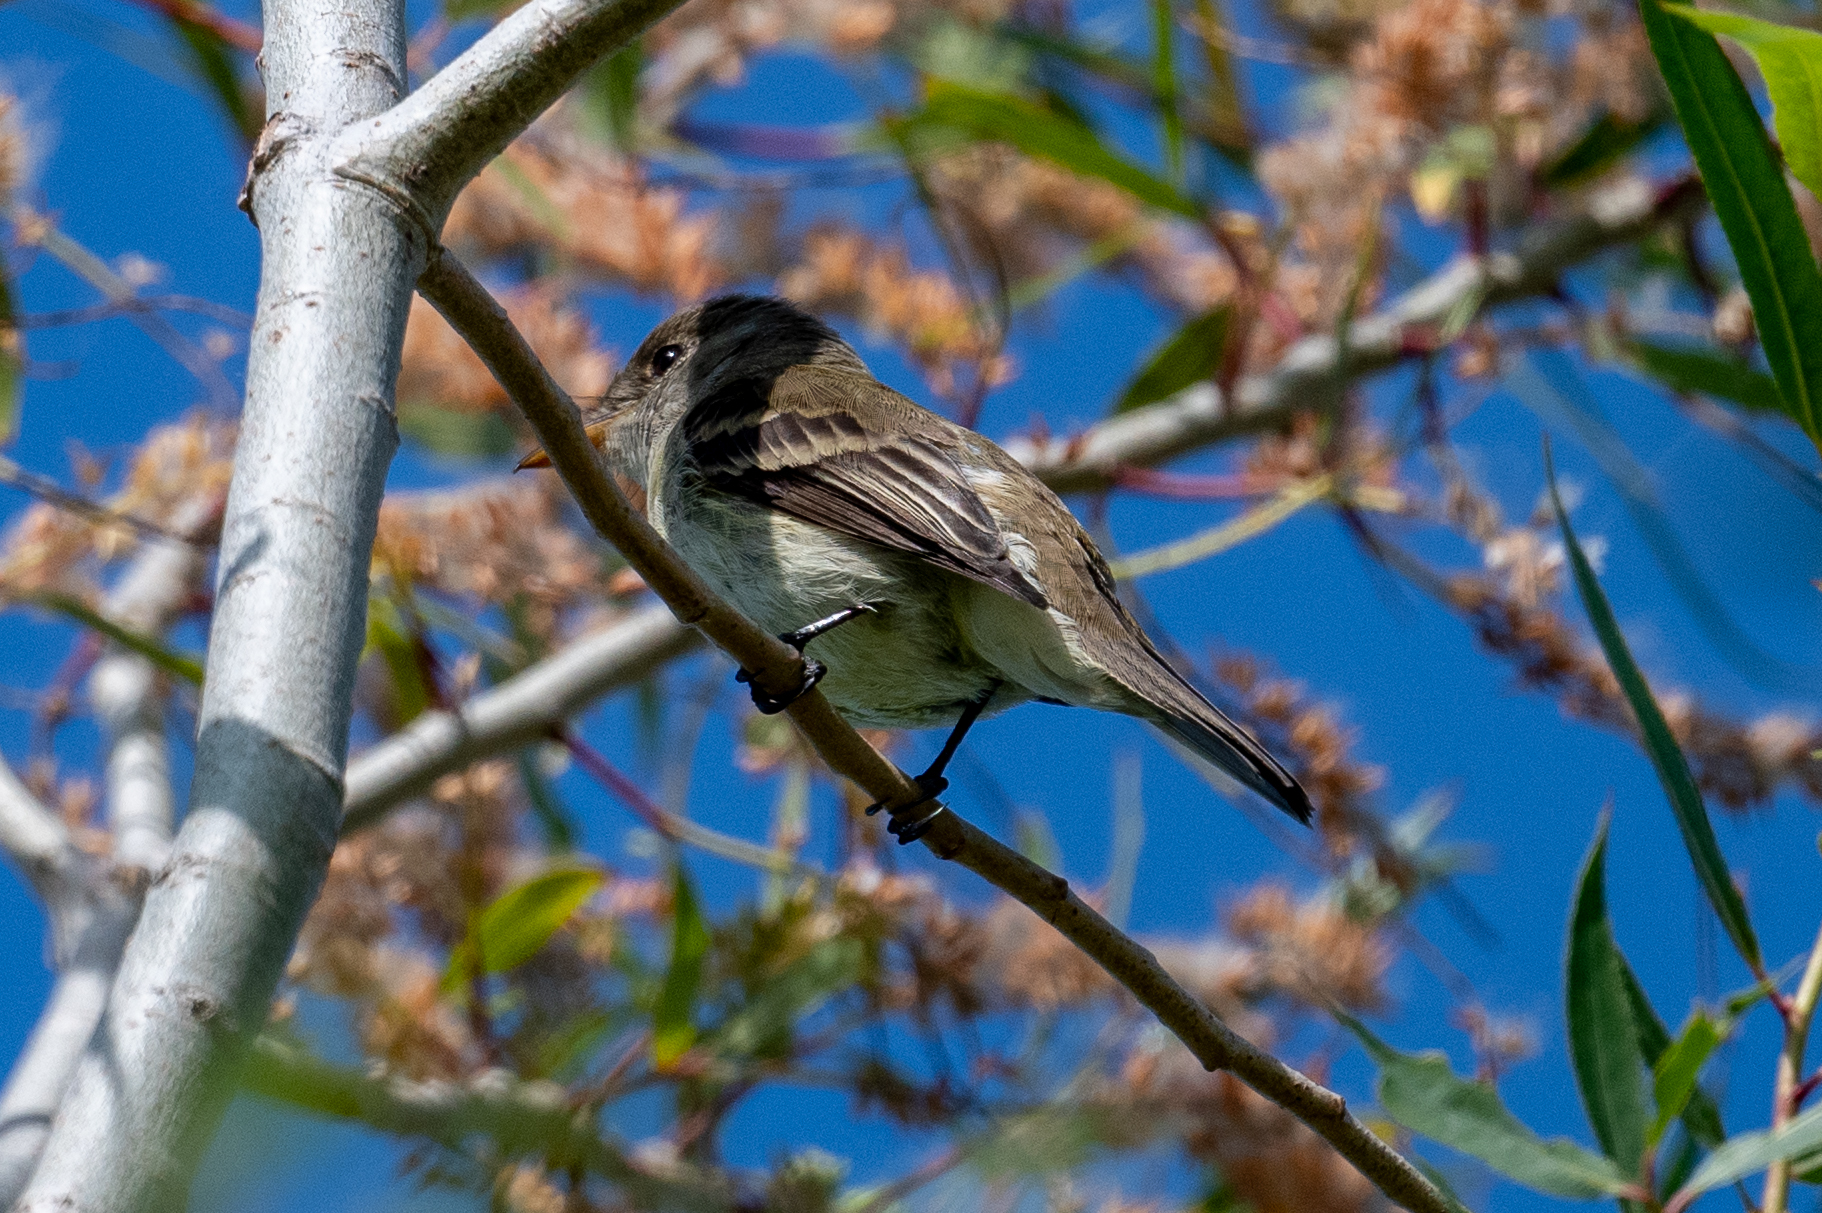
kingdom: Animalia
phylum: Chordata
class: Aves
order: Passeriformes
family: Tyrannidae
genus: Empidonax
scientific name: Empidonax traillii
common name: Willow flycatcher
